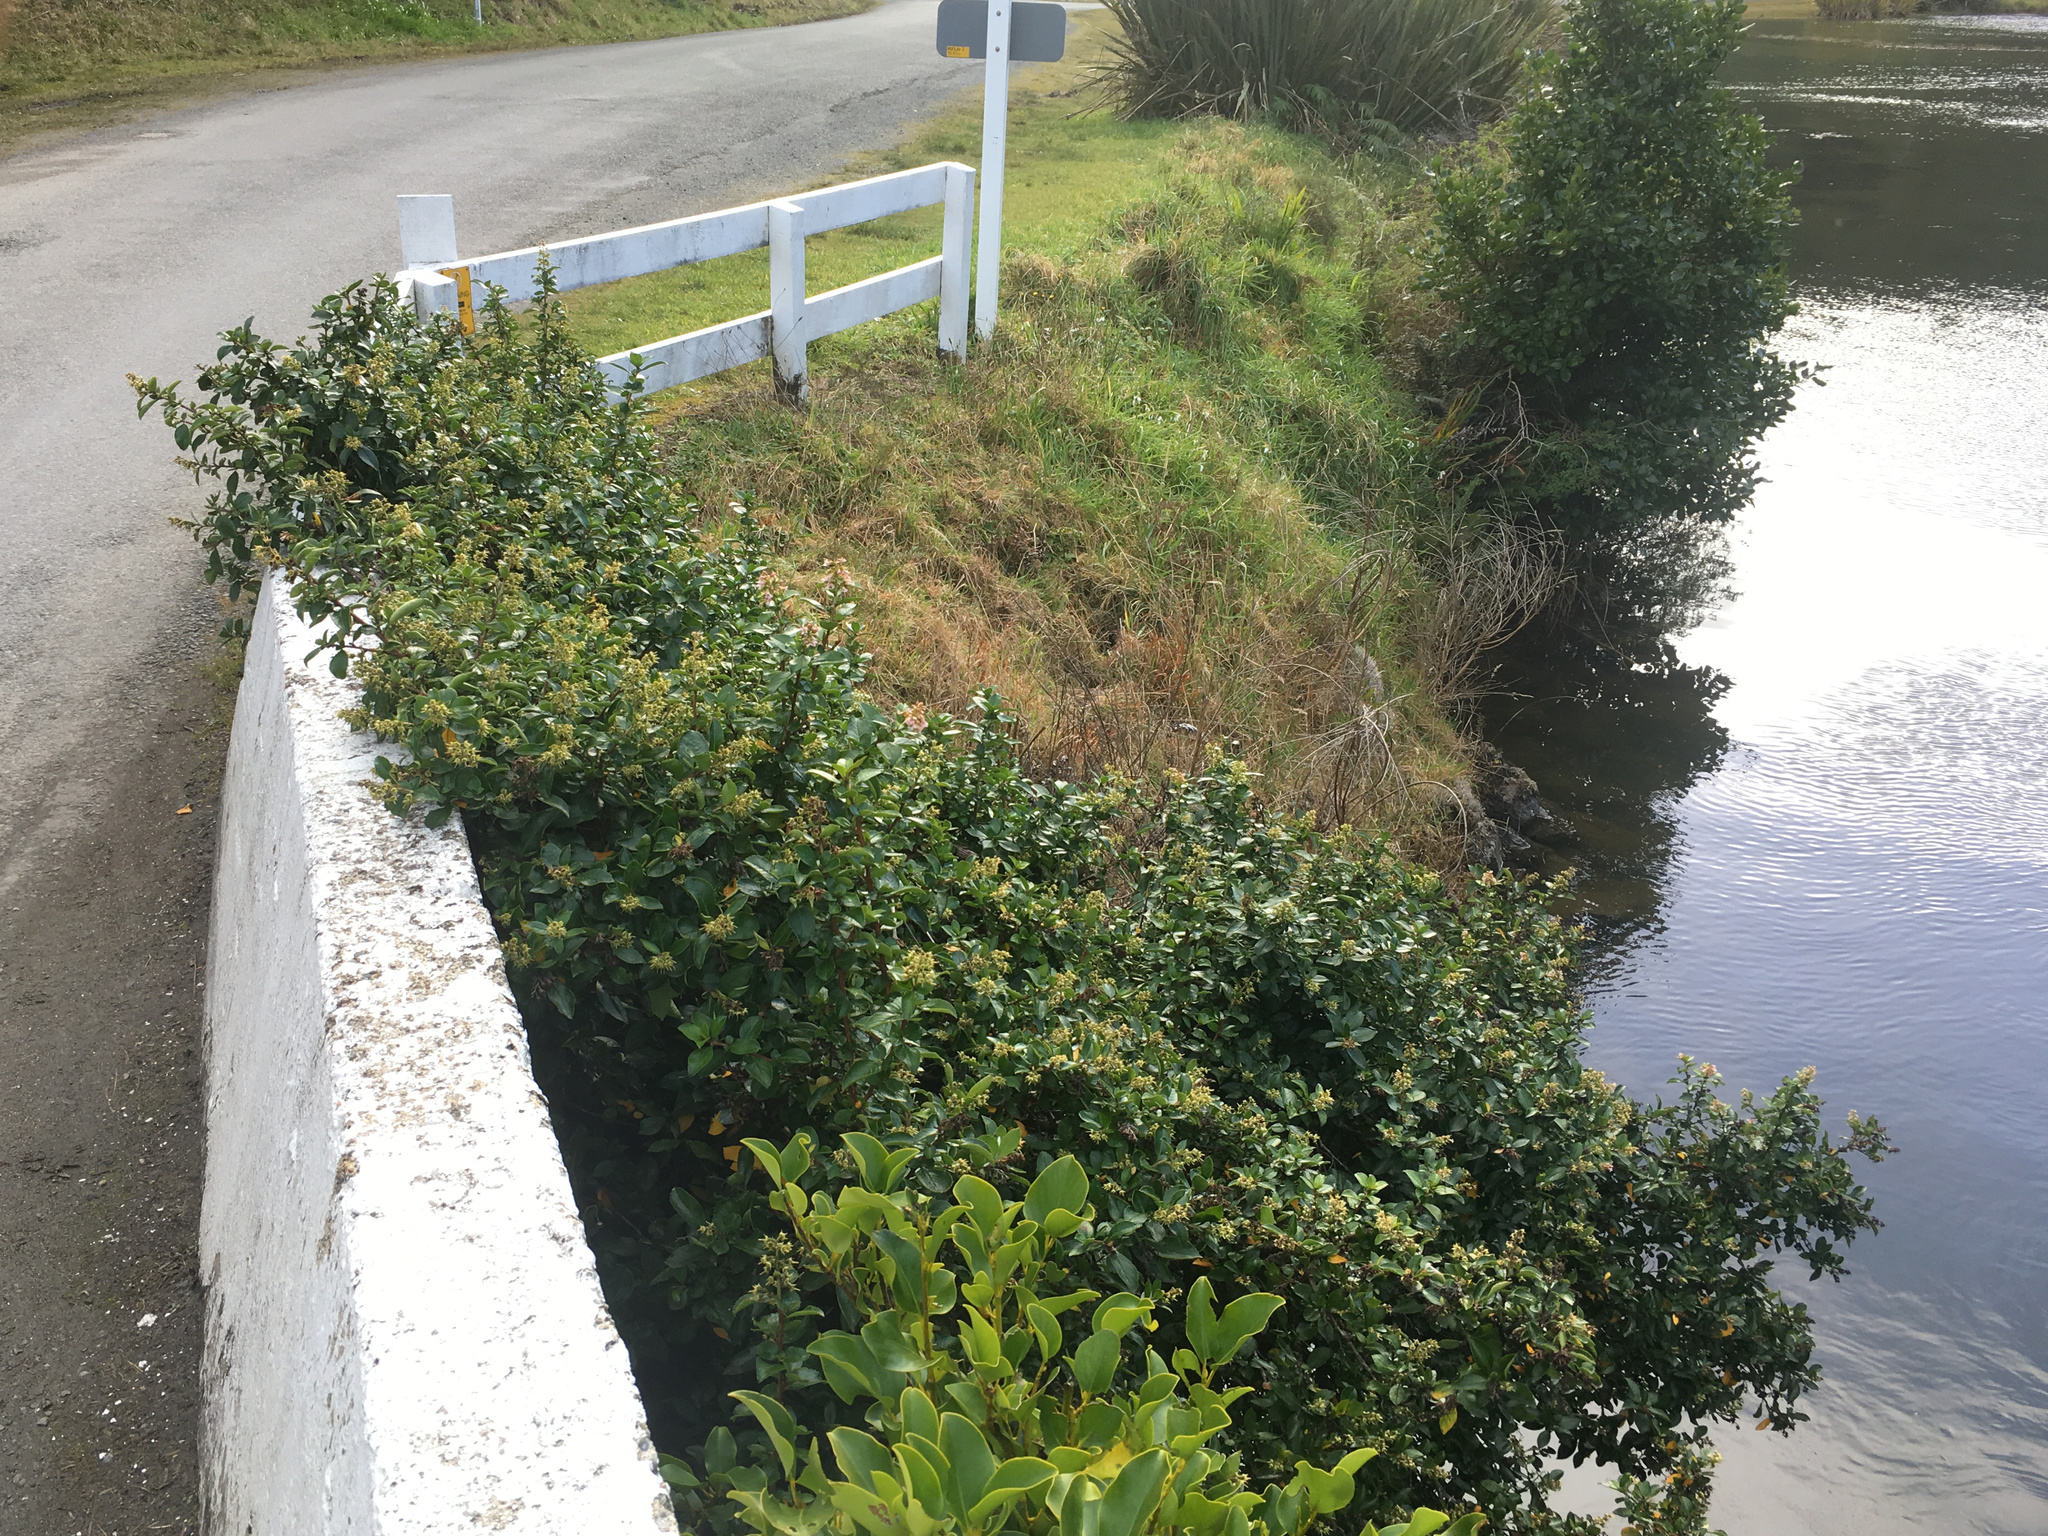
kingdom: Plantae
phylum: Tracheophyta
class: Magnoliopsida
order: Escalloniales
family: Escalloniaceae
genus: Escallonia
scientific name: Escallonia rubra
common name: Redclaws
